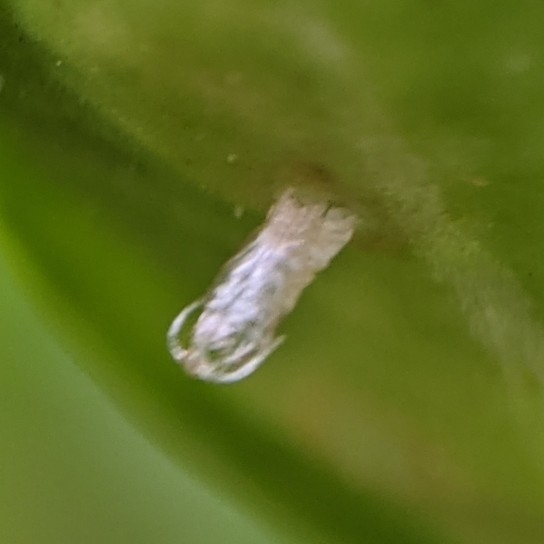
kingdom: Animalia
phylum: Arthropoda
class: Insecta
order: Diptera
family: Cecidomyiidae
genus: Monarthropalpus
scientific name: Monarthropalpus flavus
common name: Boxwood leafminer
